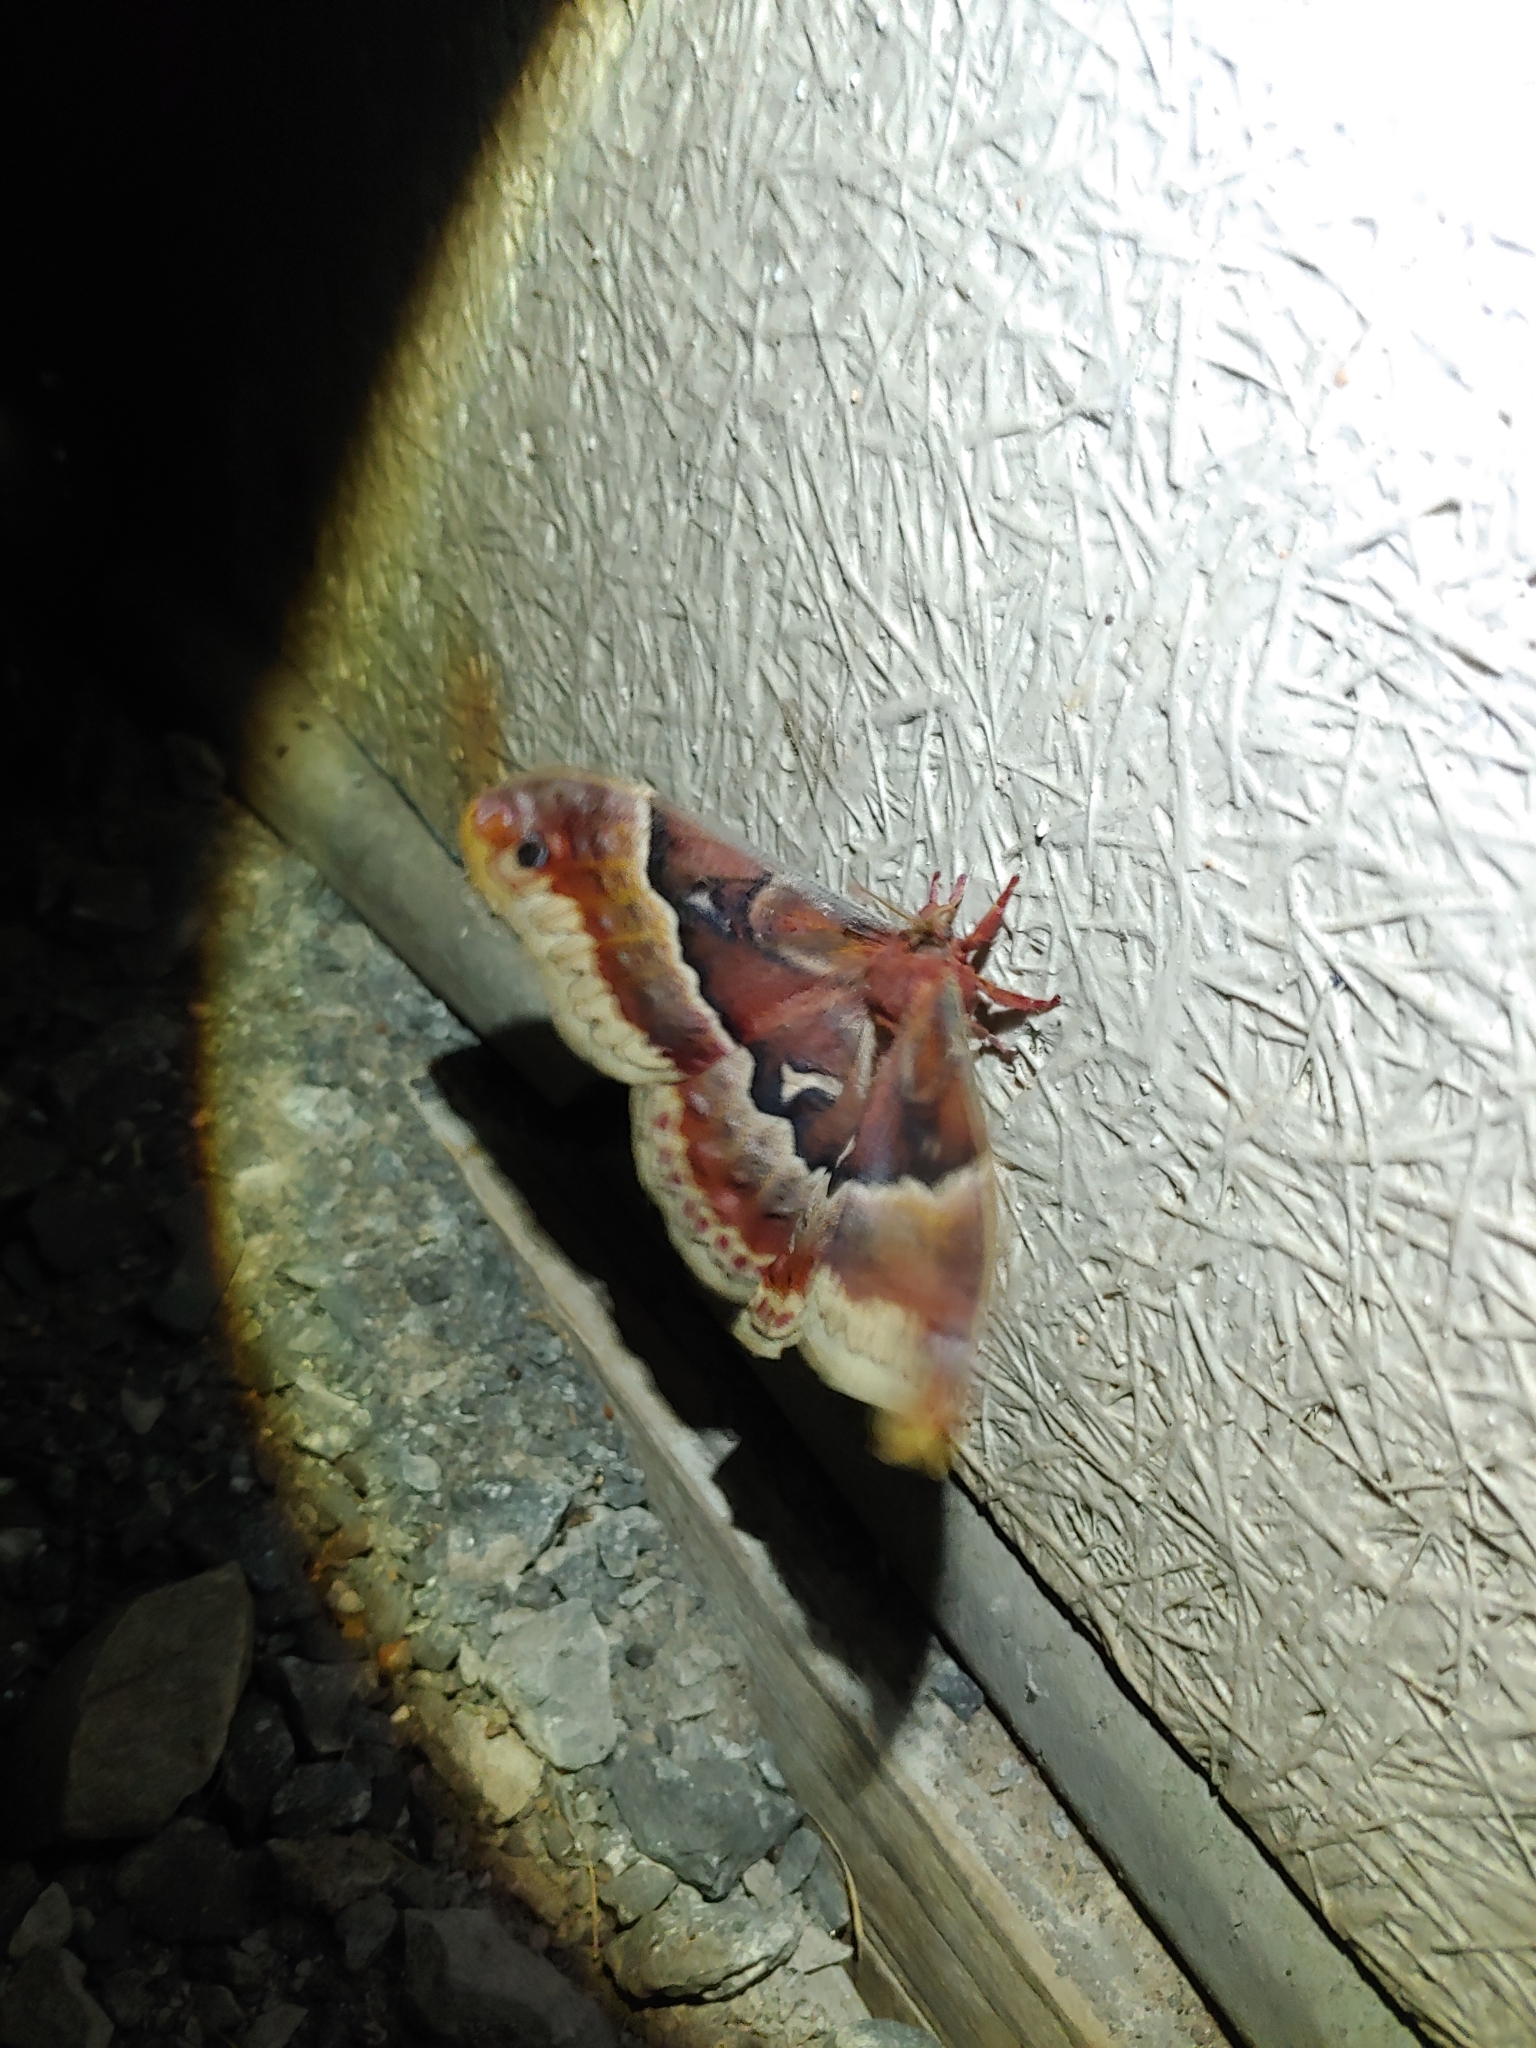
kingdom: Animalia
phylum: Arthropoda
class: Insecta
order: Lepidoptera
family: Saturniidae
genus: Callosamia
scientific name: Callosamia promethea
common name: Promethea silkmoth
